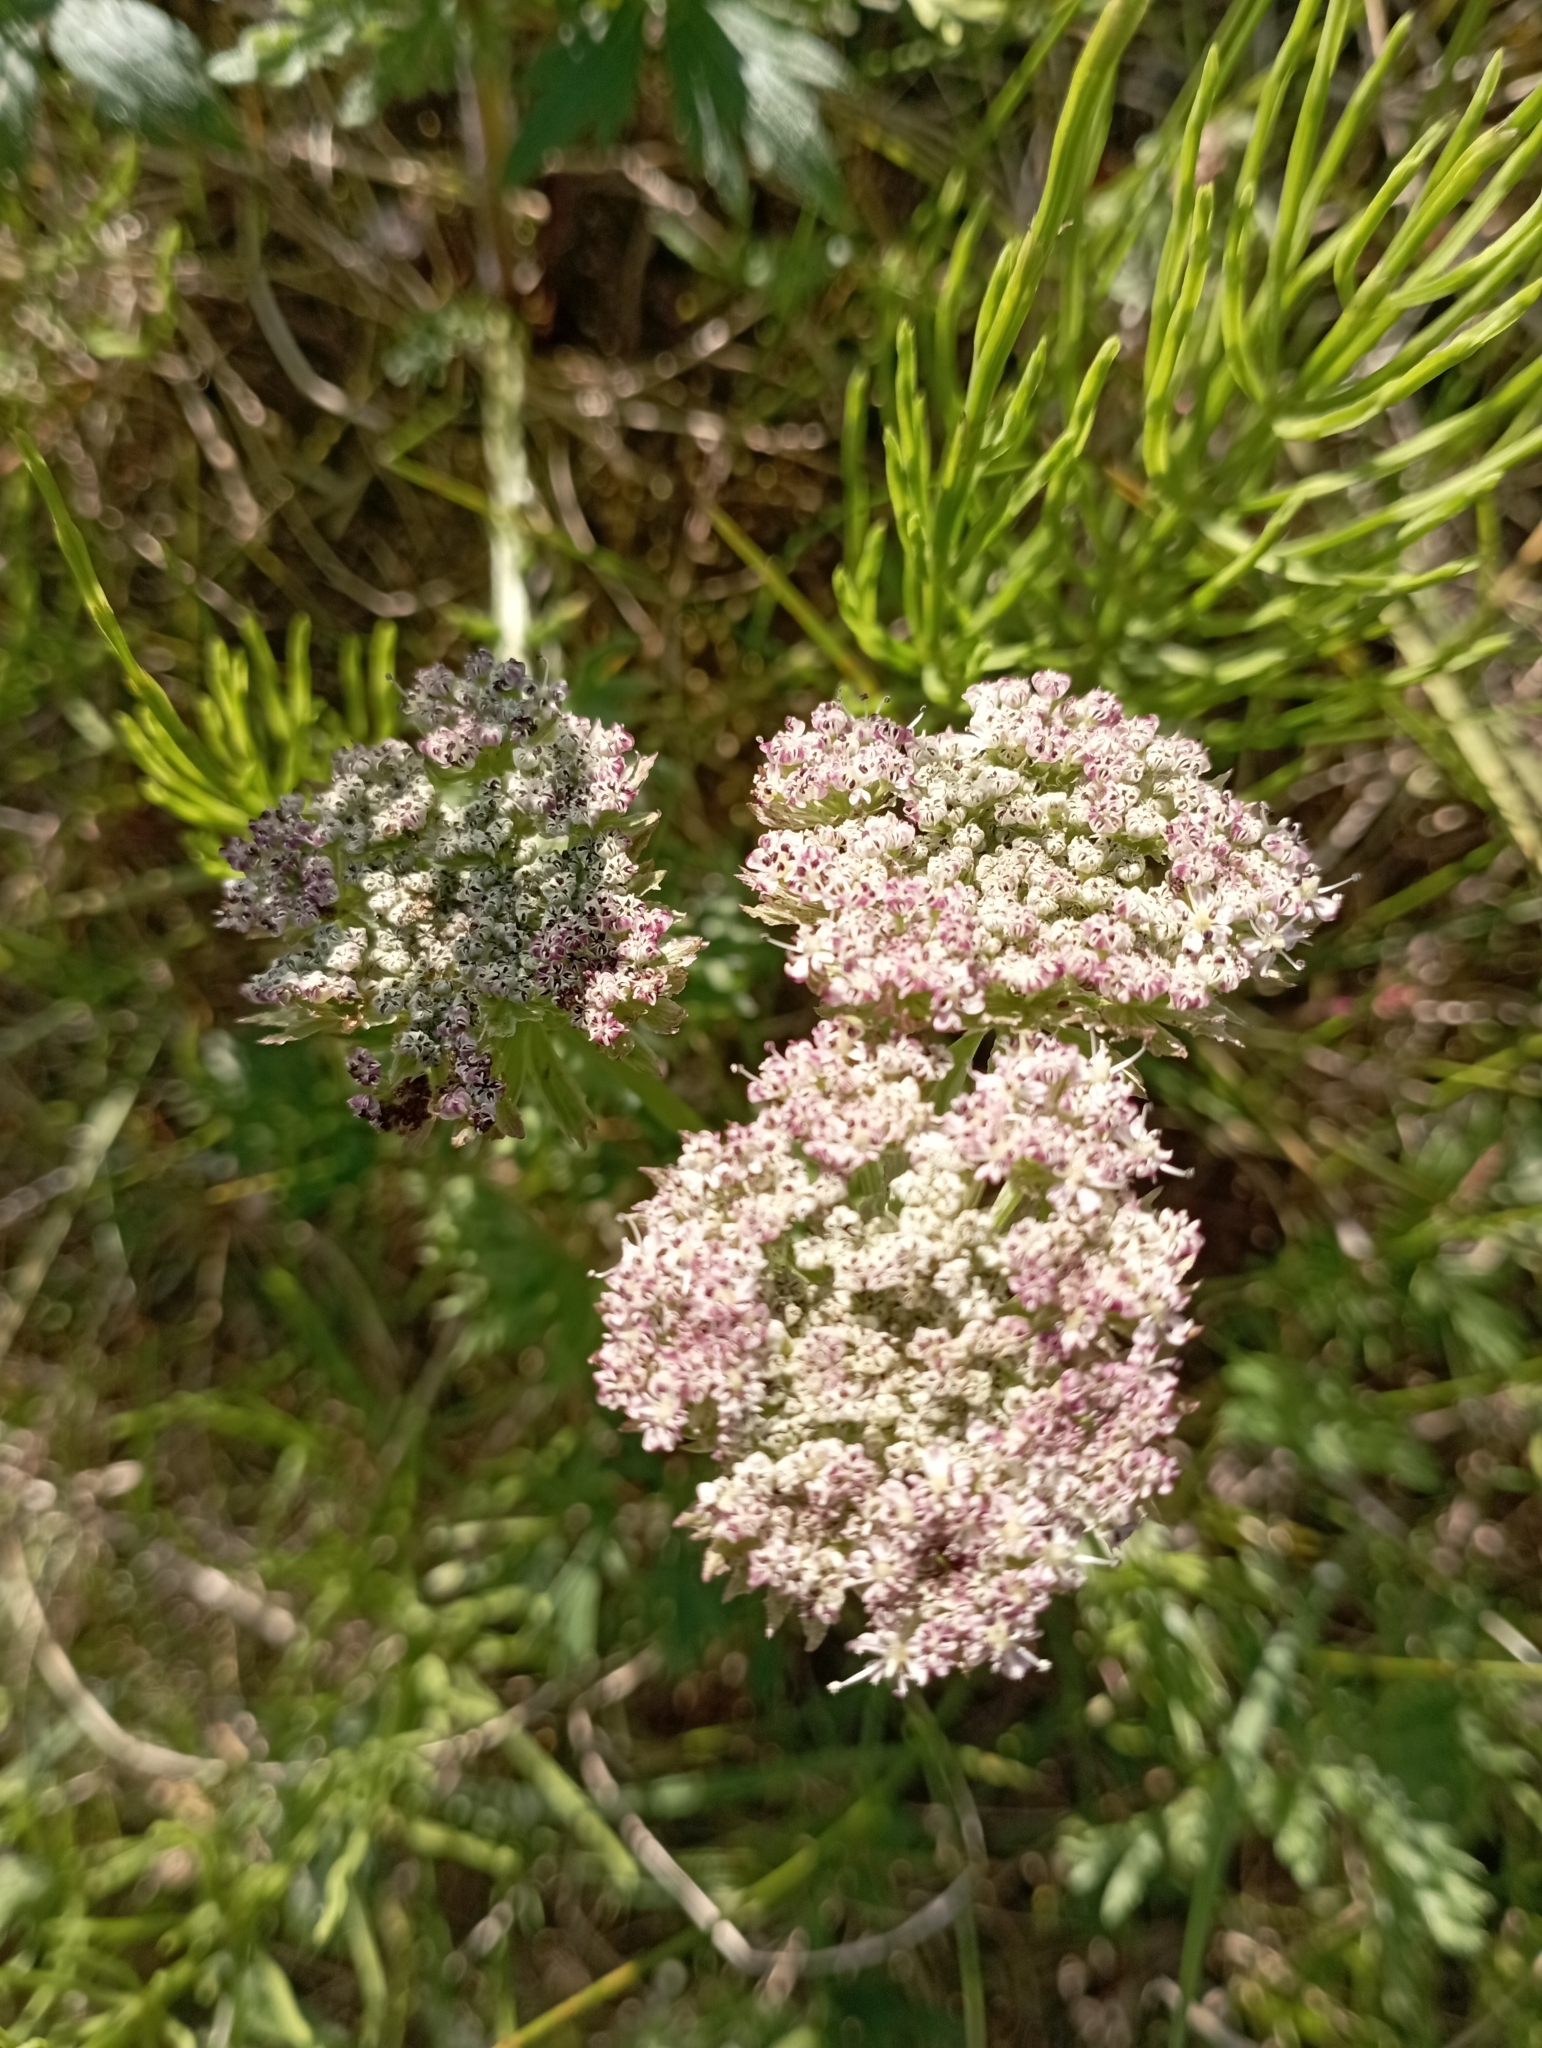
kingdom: Plantae
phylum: Tracheophyta
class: Magnoliopsida
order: Apiales
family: Apiaceae
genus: Pachypleurum
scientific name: Pachypleurum mutellinoides
